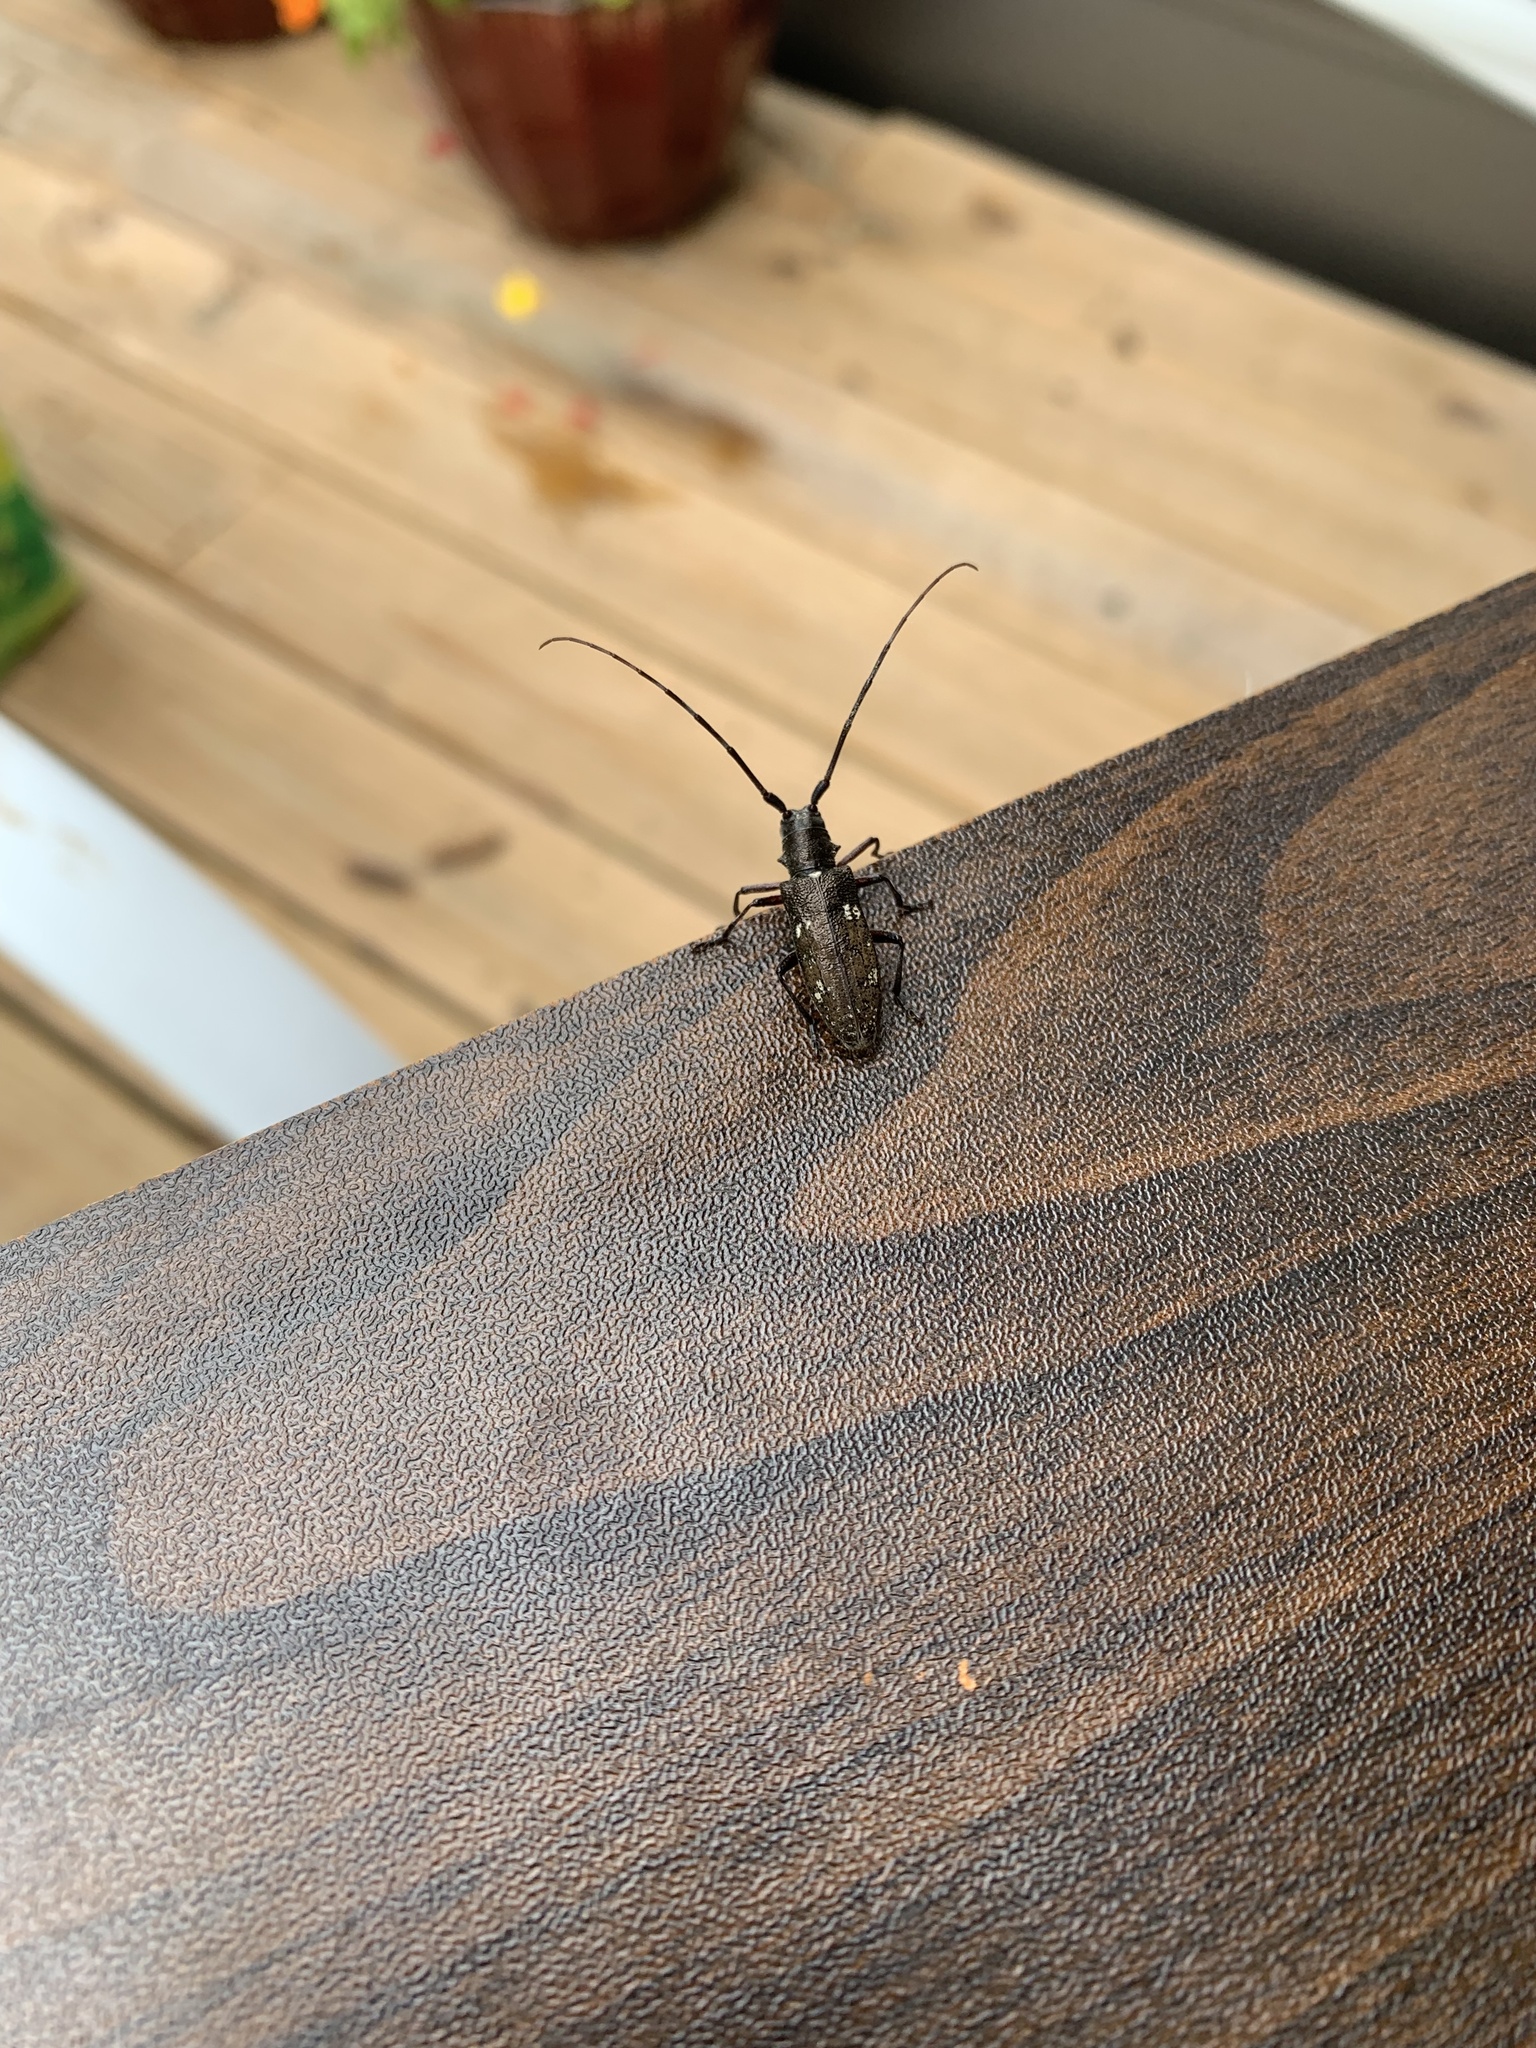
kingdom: Animalia
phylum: Arthropoda
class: Insecta
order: Coleoptera
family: Cerambycidae
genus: Monochamus
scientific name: Monochamus scutellatus
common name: White-spotted sawyer beetle
